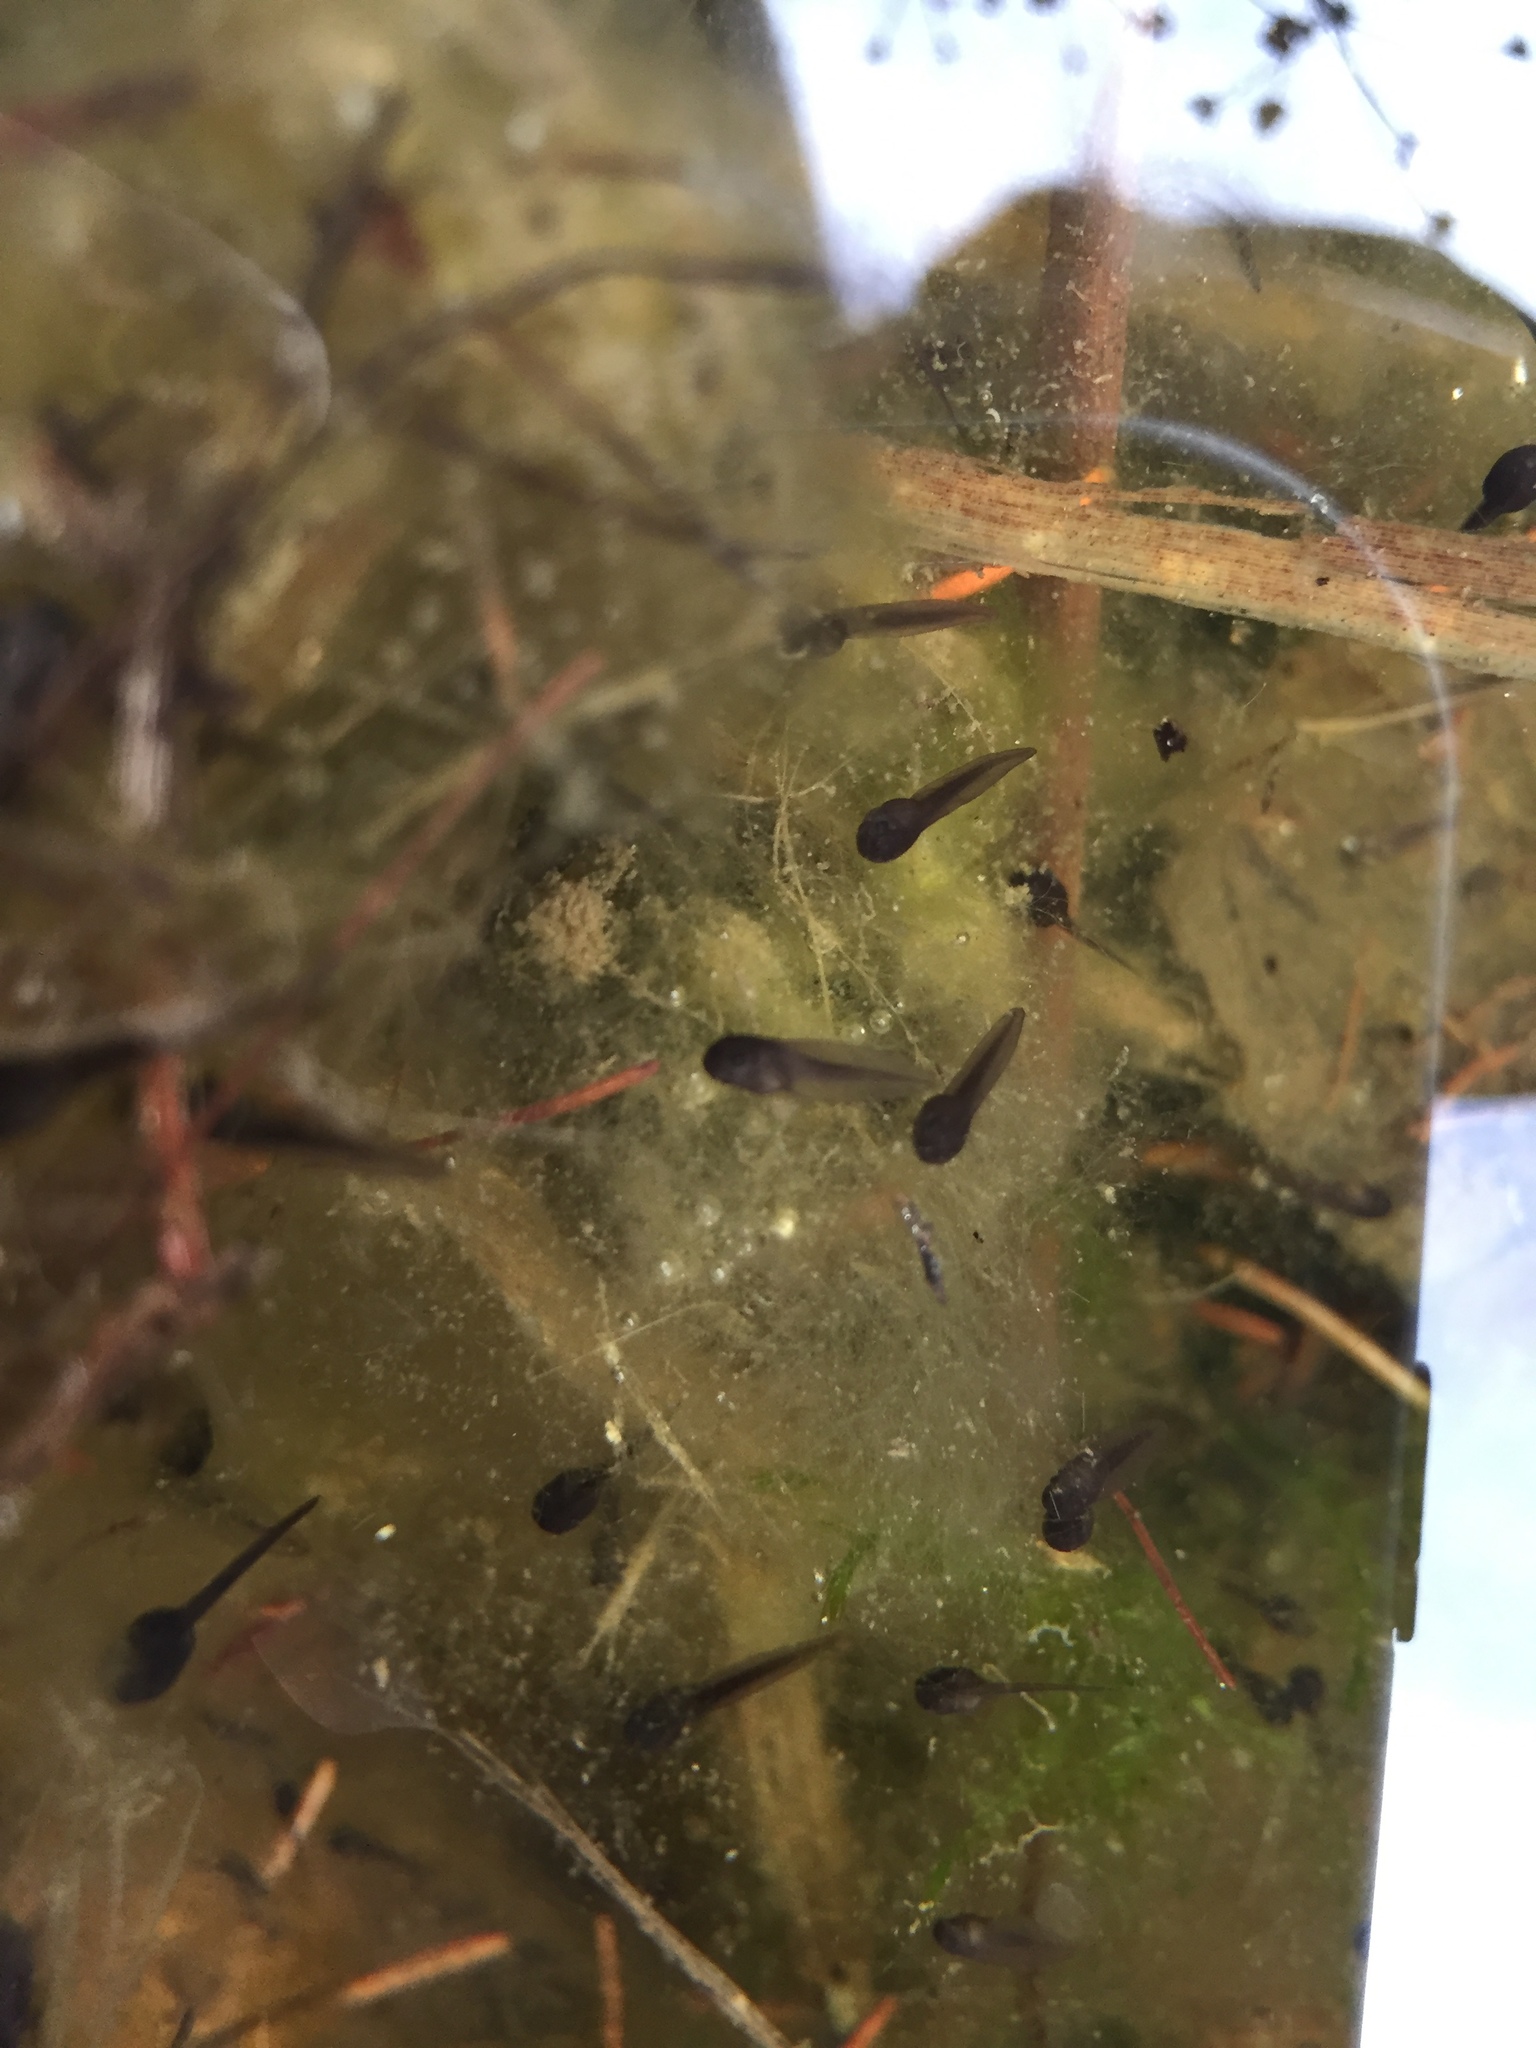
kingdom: Animalia
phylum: Chordata
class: Amphibia
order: Anura
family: Ranidae
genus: Lithobates
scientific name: Lithobates sylvaticus
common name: Wood frog
